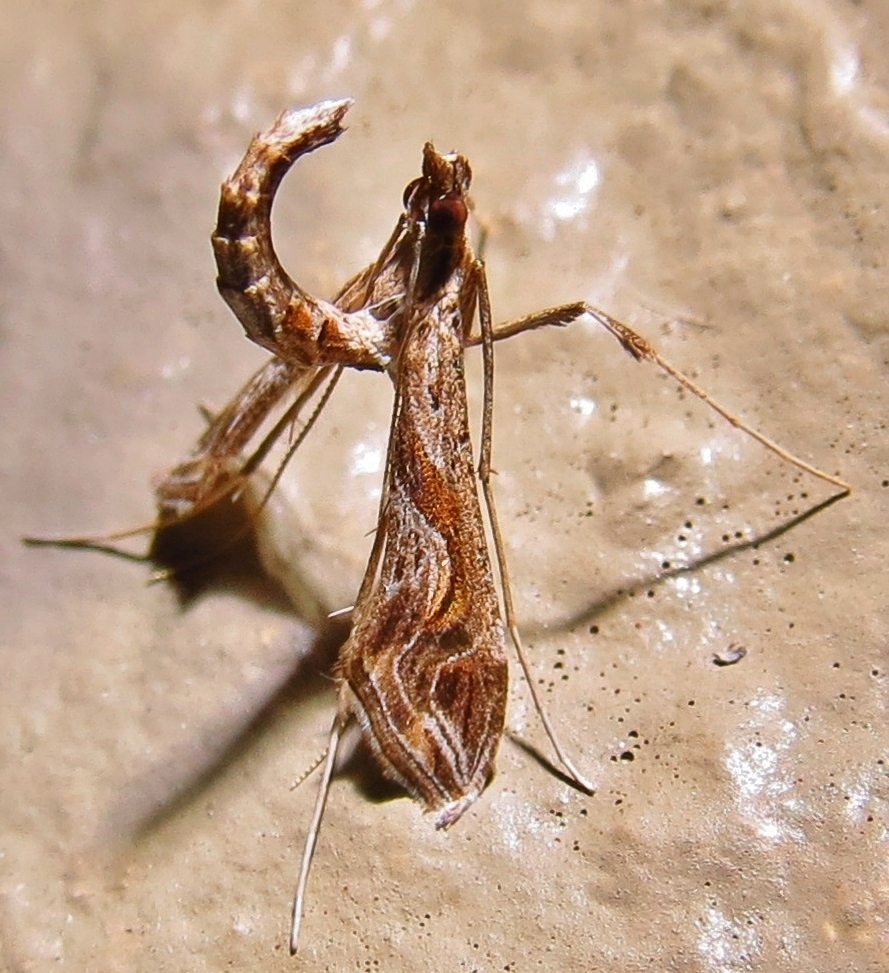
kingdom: Animalia
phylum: Arthropoda
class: Insecta
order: Lepidoptera
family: Crambidae
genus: Lineodes
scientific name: Lineodes integra
